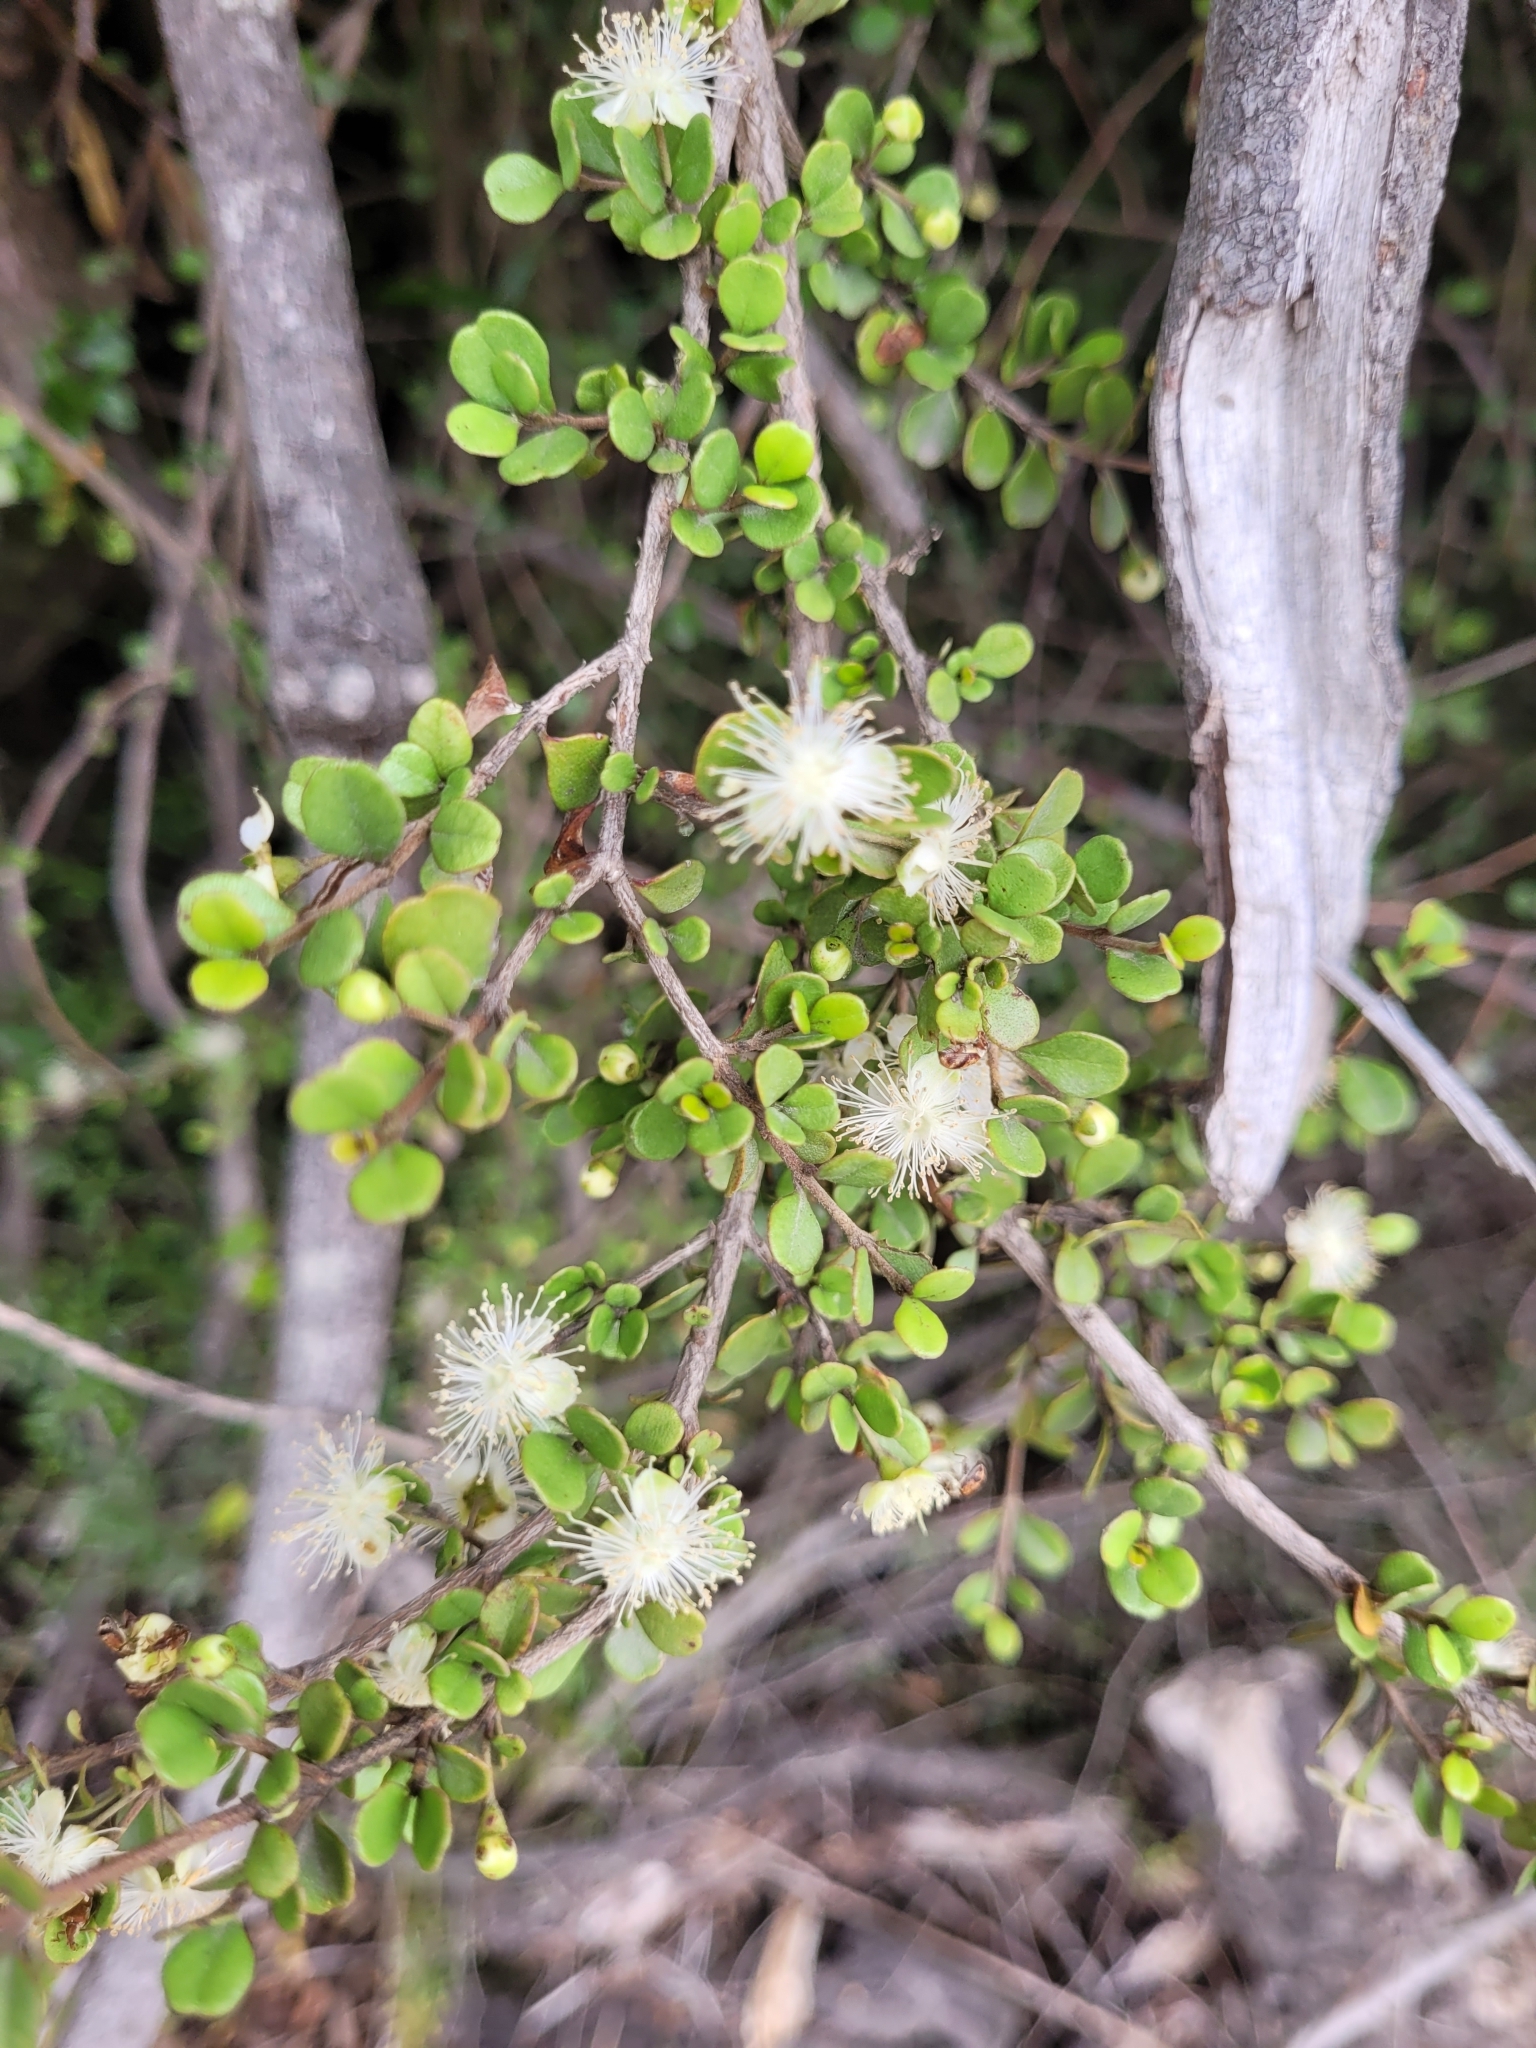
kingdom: Plantae
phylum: Tracheophyta
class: Magnoliopsida
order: Myrtales
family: Myrtaceae
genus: Lophomyrtus
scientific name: Lophomyrtus obcordata
